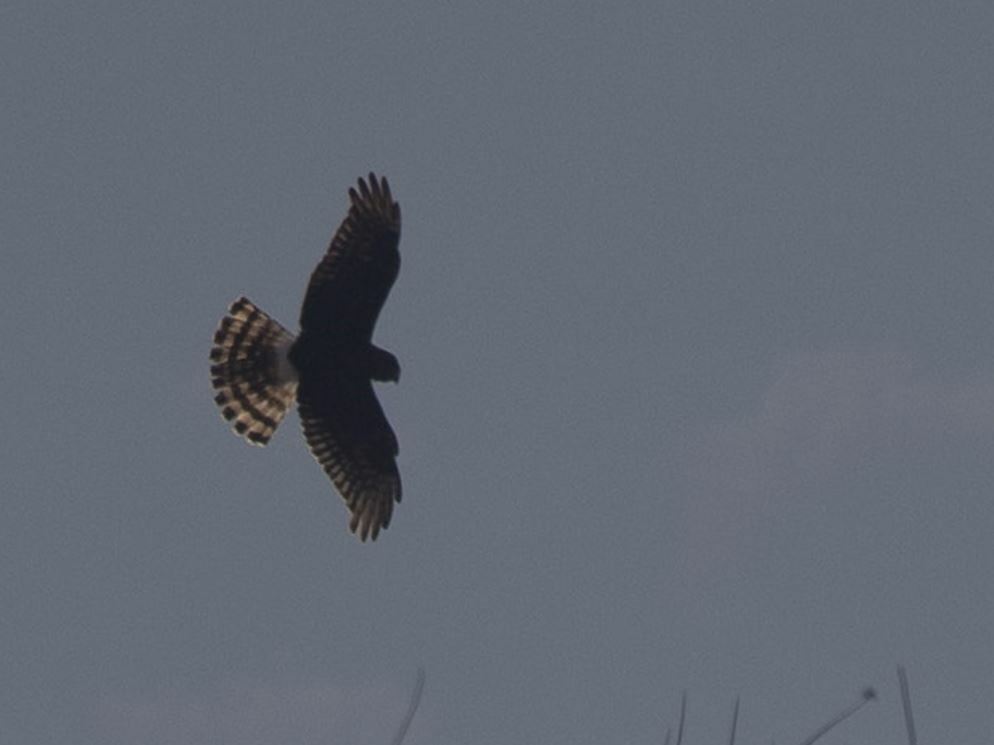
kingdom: Animalia
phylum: Chordata
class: Aves
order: Accipitriformes
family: Accipitridae
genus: Circus
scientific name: Circus cinereus
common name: Cinereous harrier
